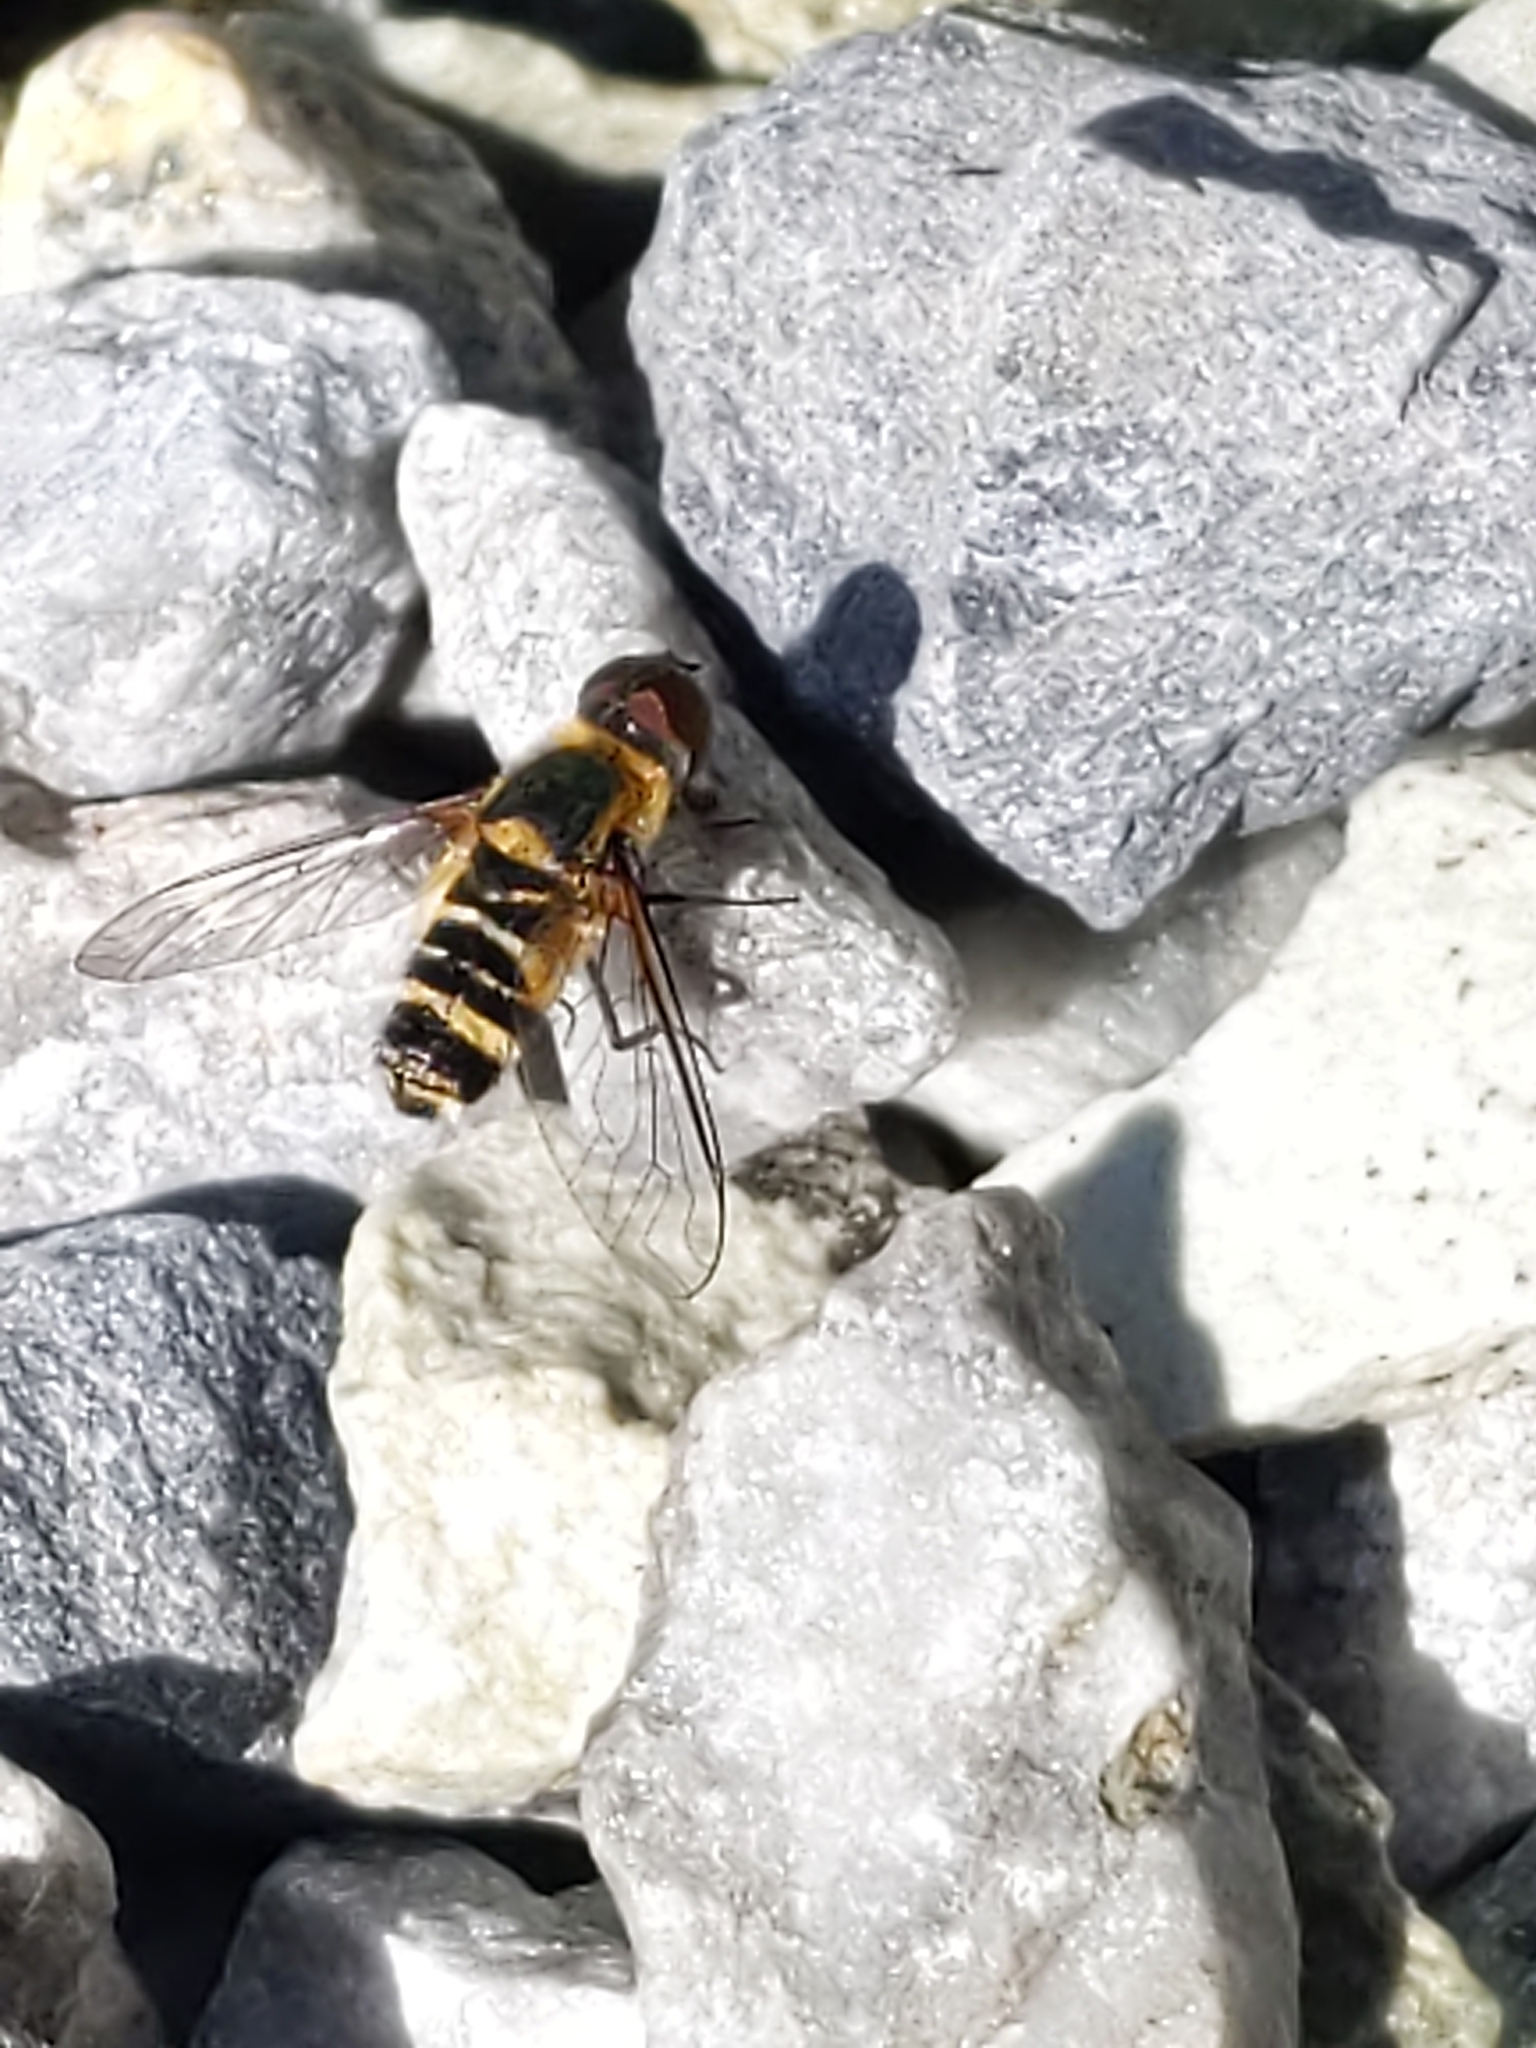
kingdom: Animalia
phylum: Arthropoda
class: Insecta
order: Diptera
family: Bombyliidae
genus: Villa
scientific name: Villa
